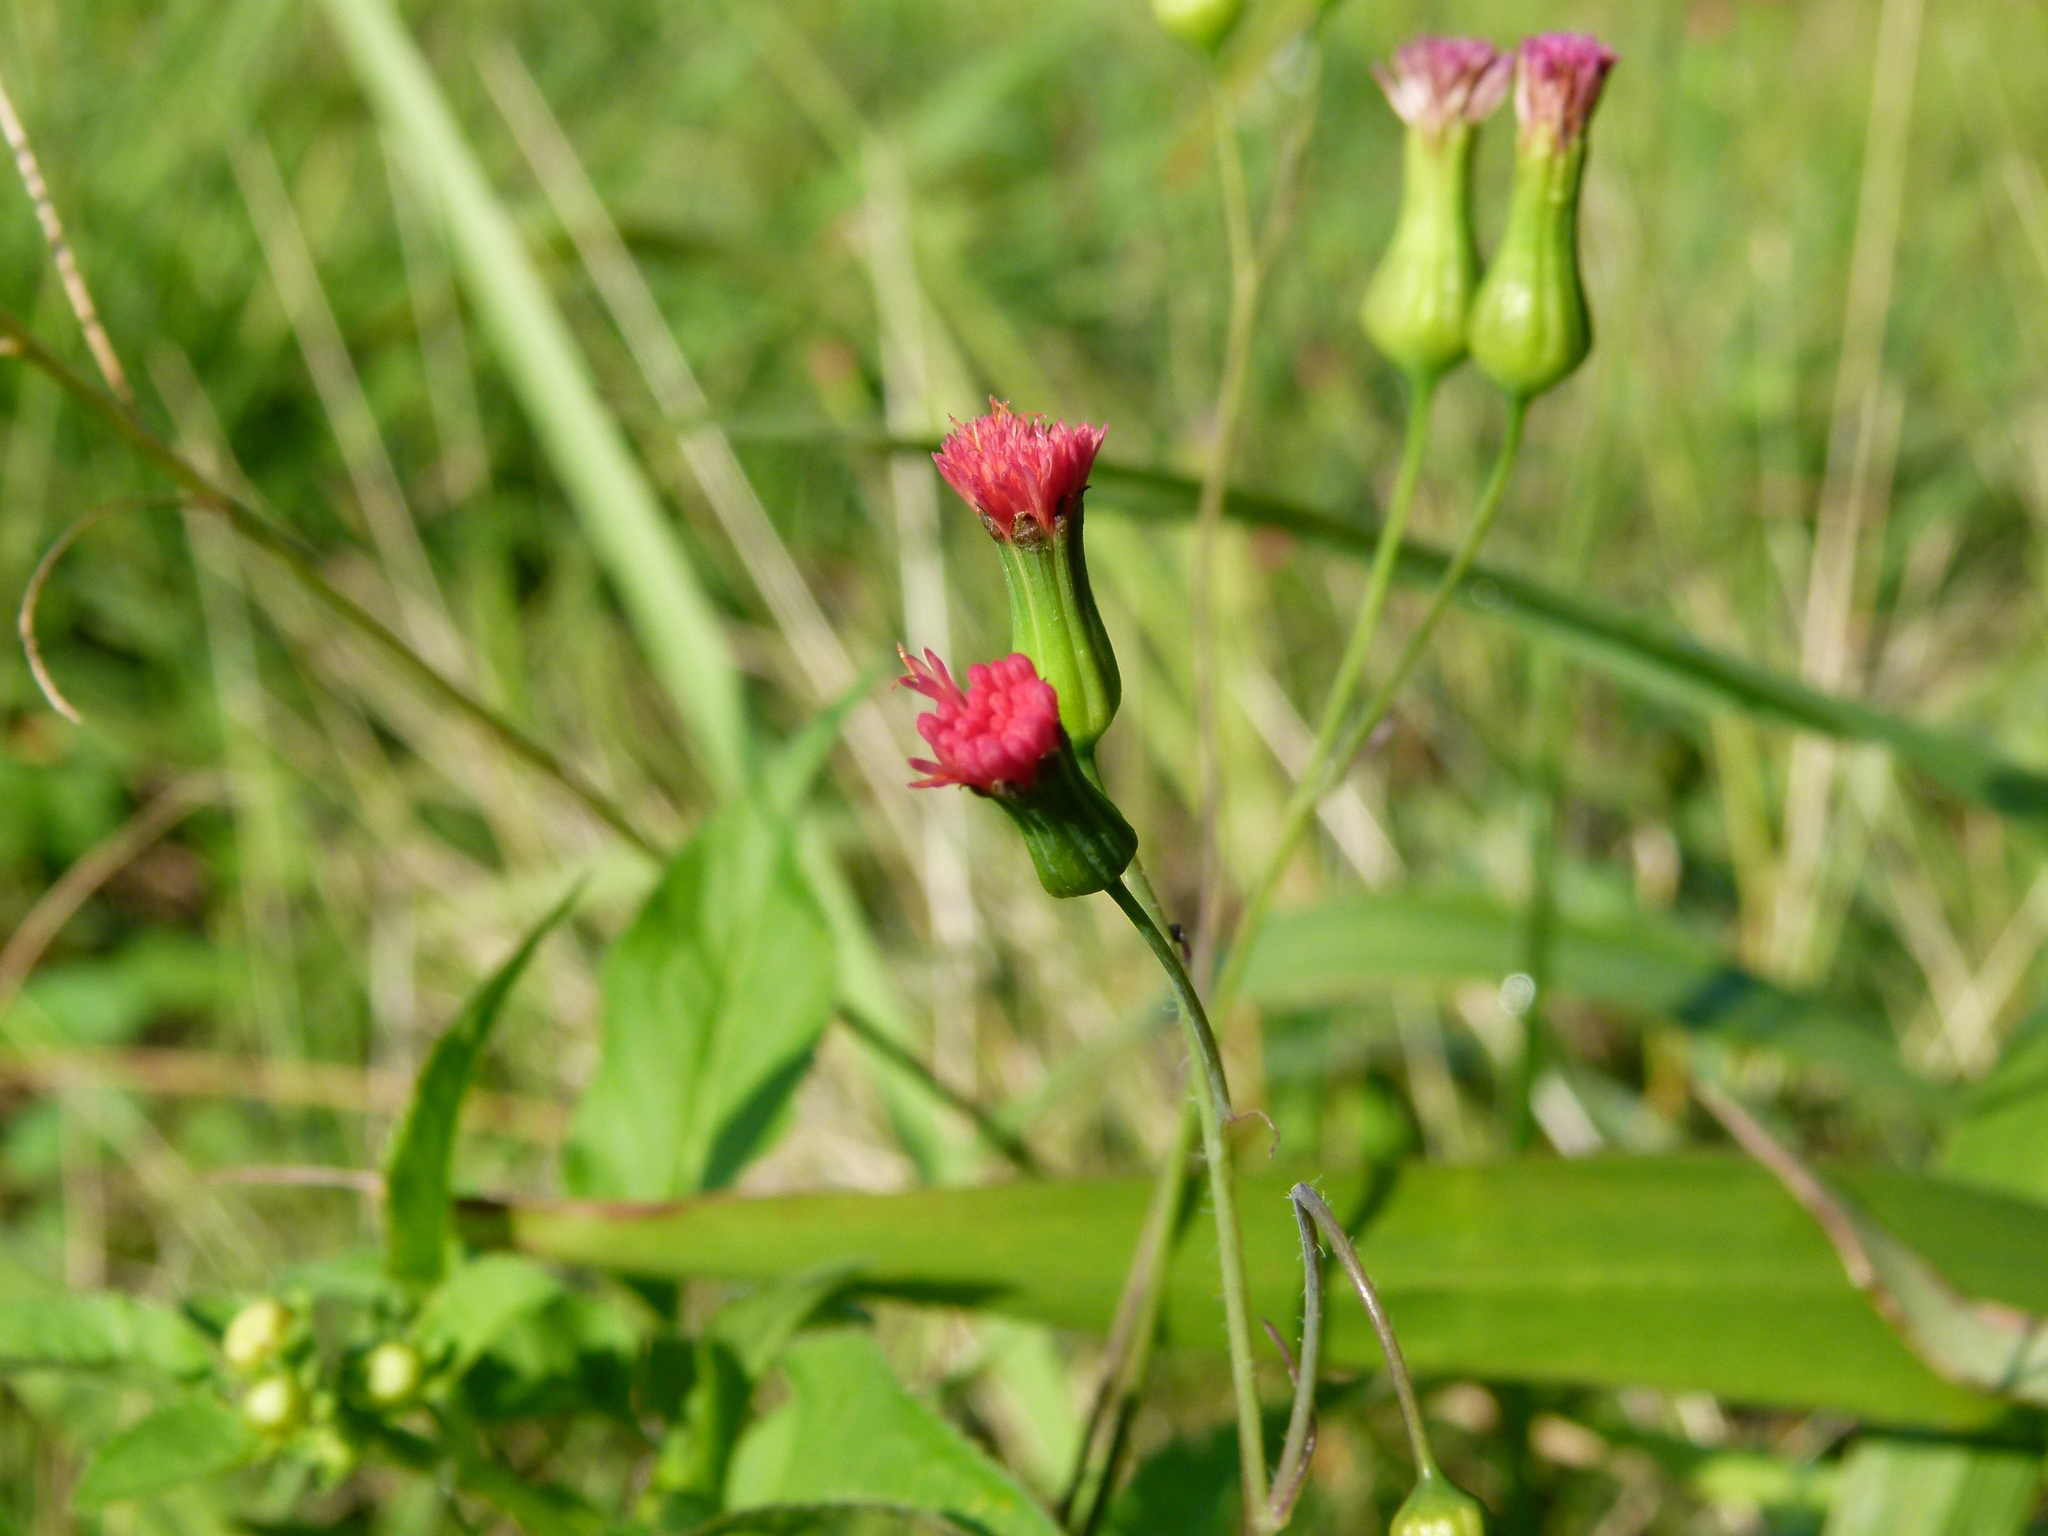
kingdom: Plantae
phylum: Tracheophyta
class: Magnoliopsida
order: Asterales
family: Asteraceae
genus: Emilia
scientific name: Emilia fosbergii
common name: Florida tasselflower
